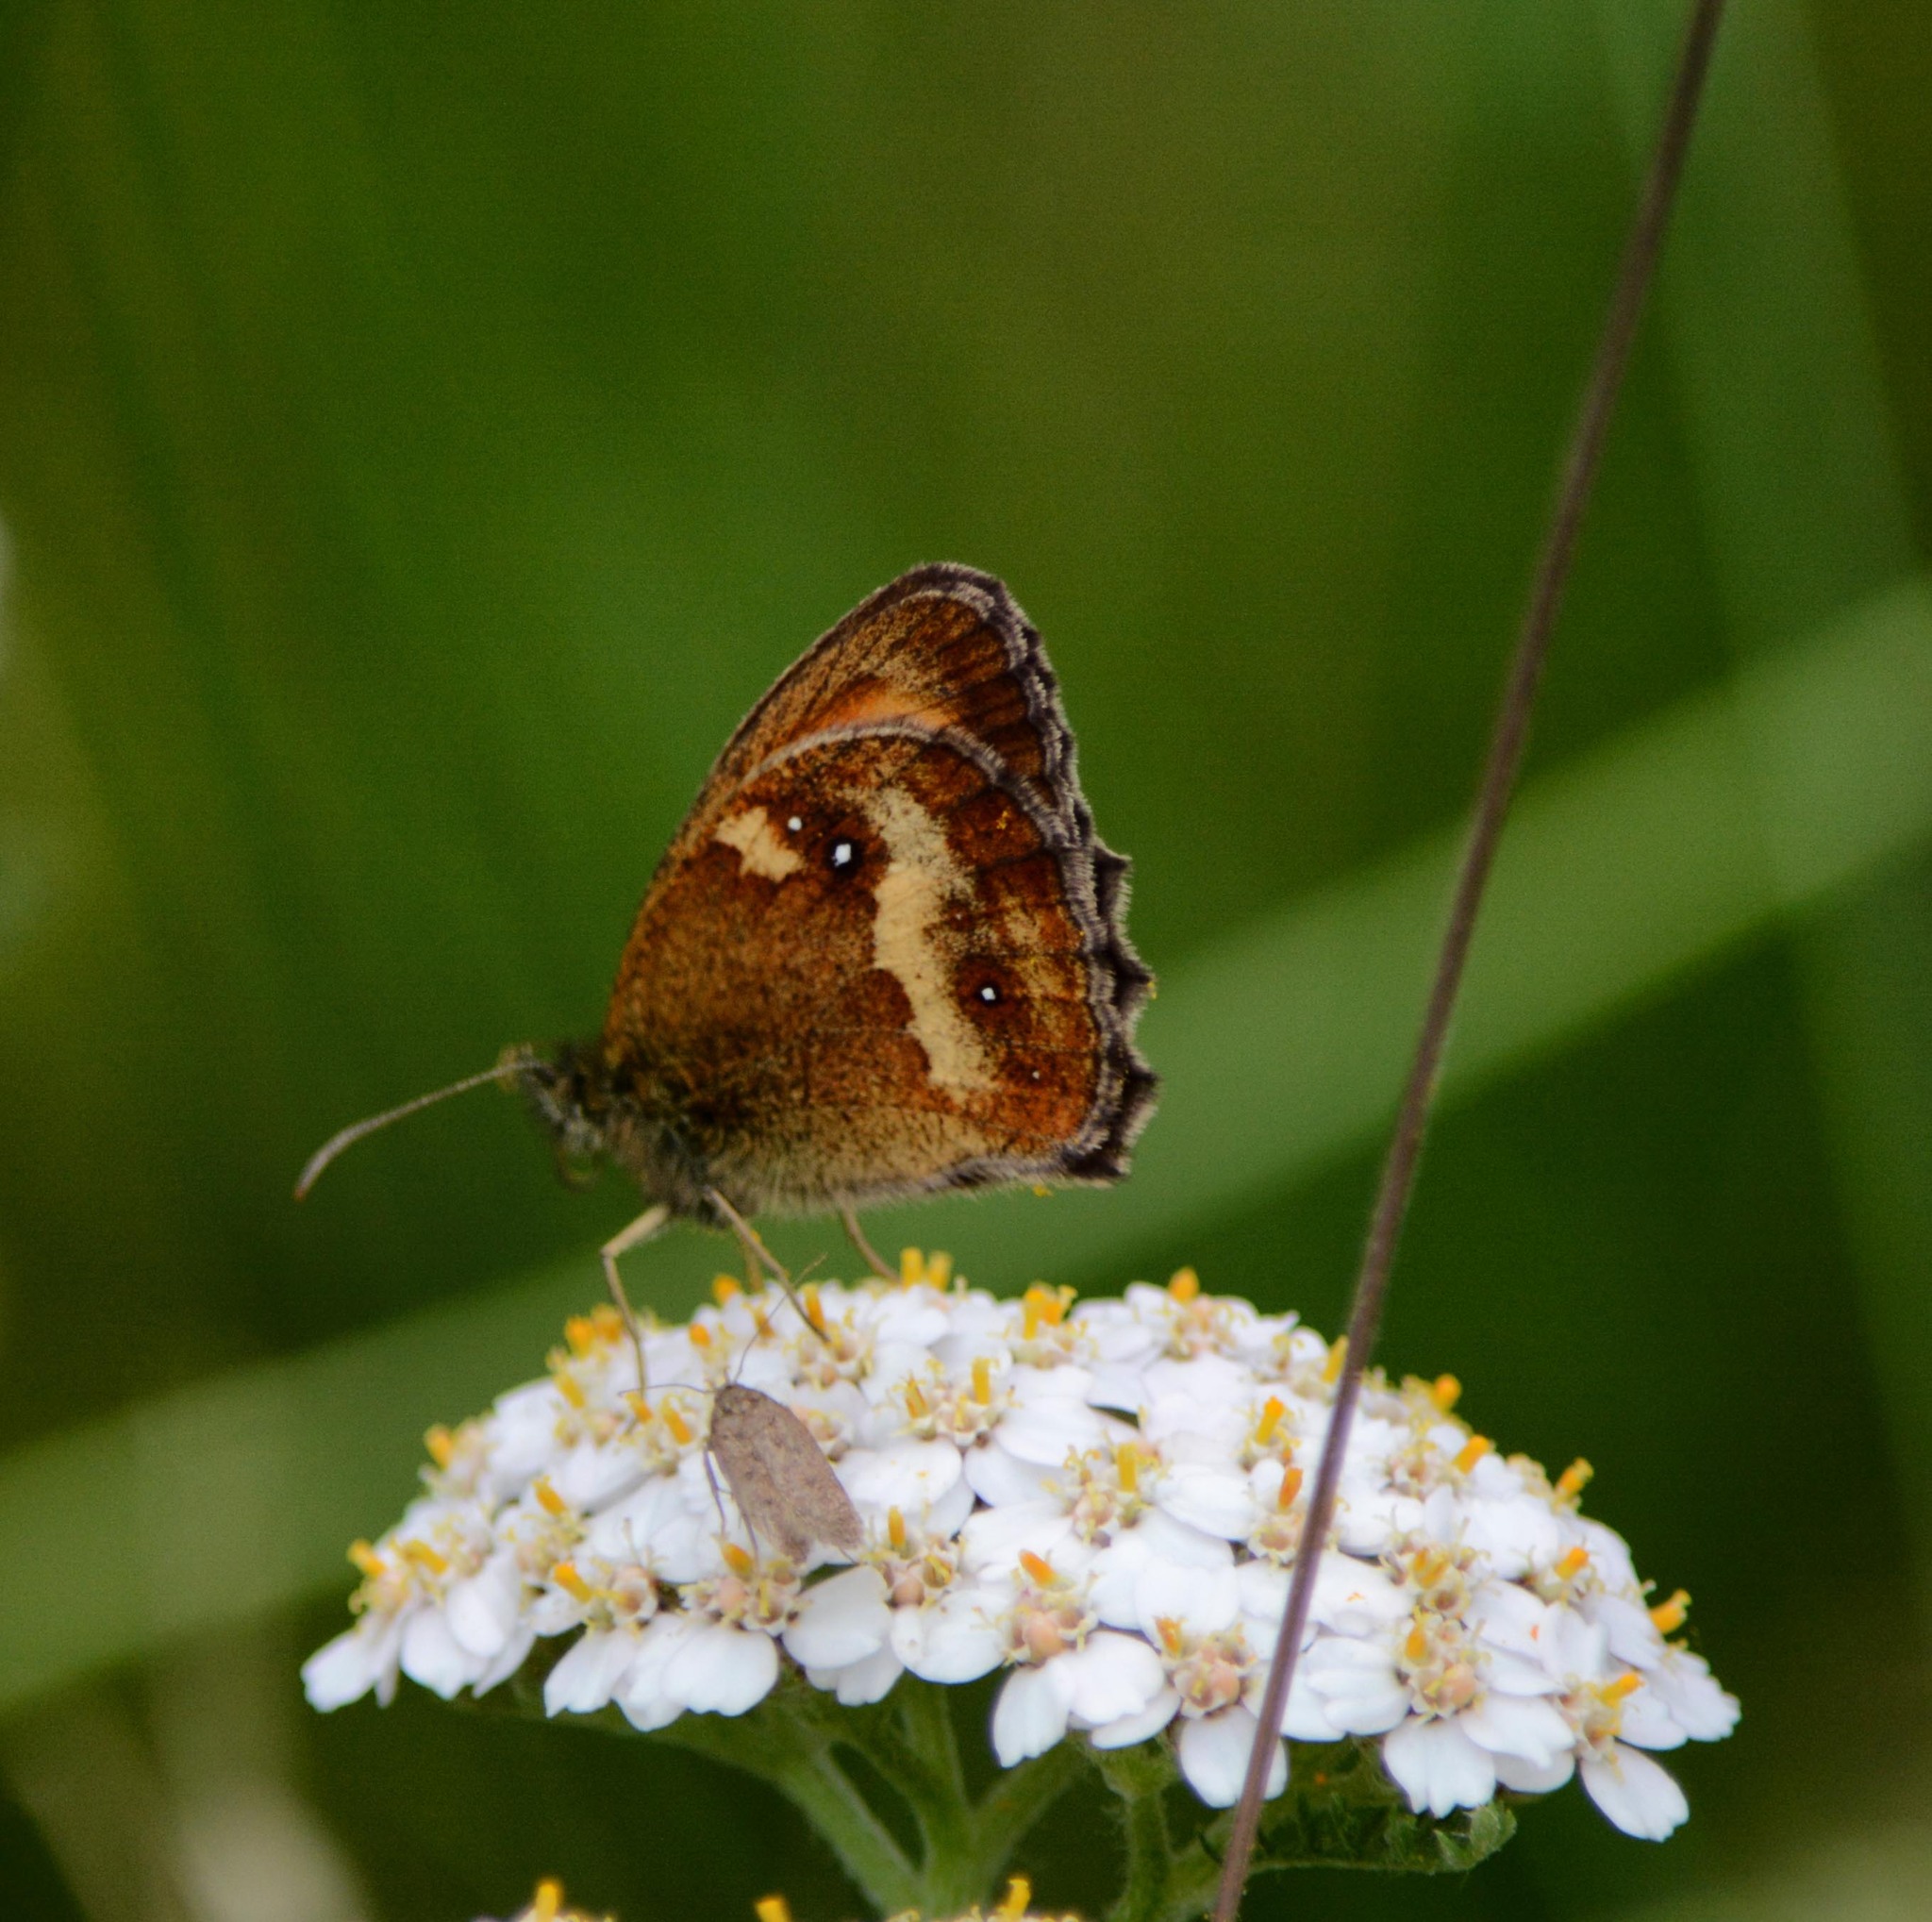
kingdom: Animalia
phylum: Arthropoda
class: Insecta
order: Lepidoptera
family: Nymphalidae
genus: Pyronia
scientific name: Pyronia tithonus
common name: Gatekeeper
